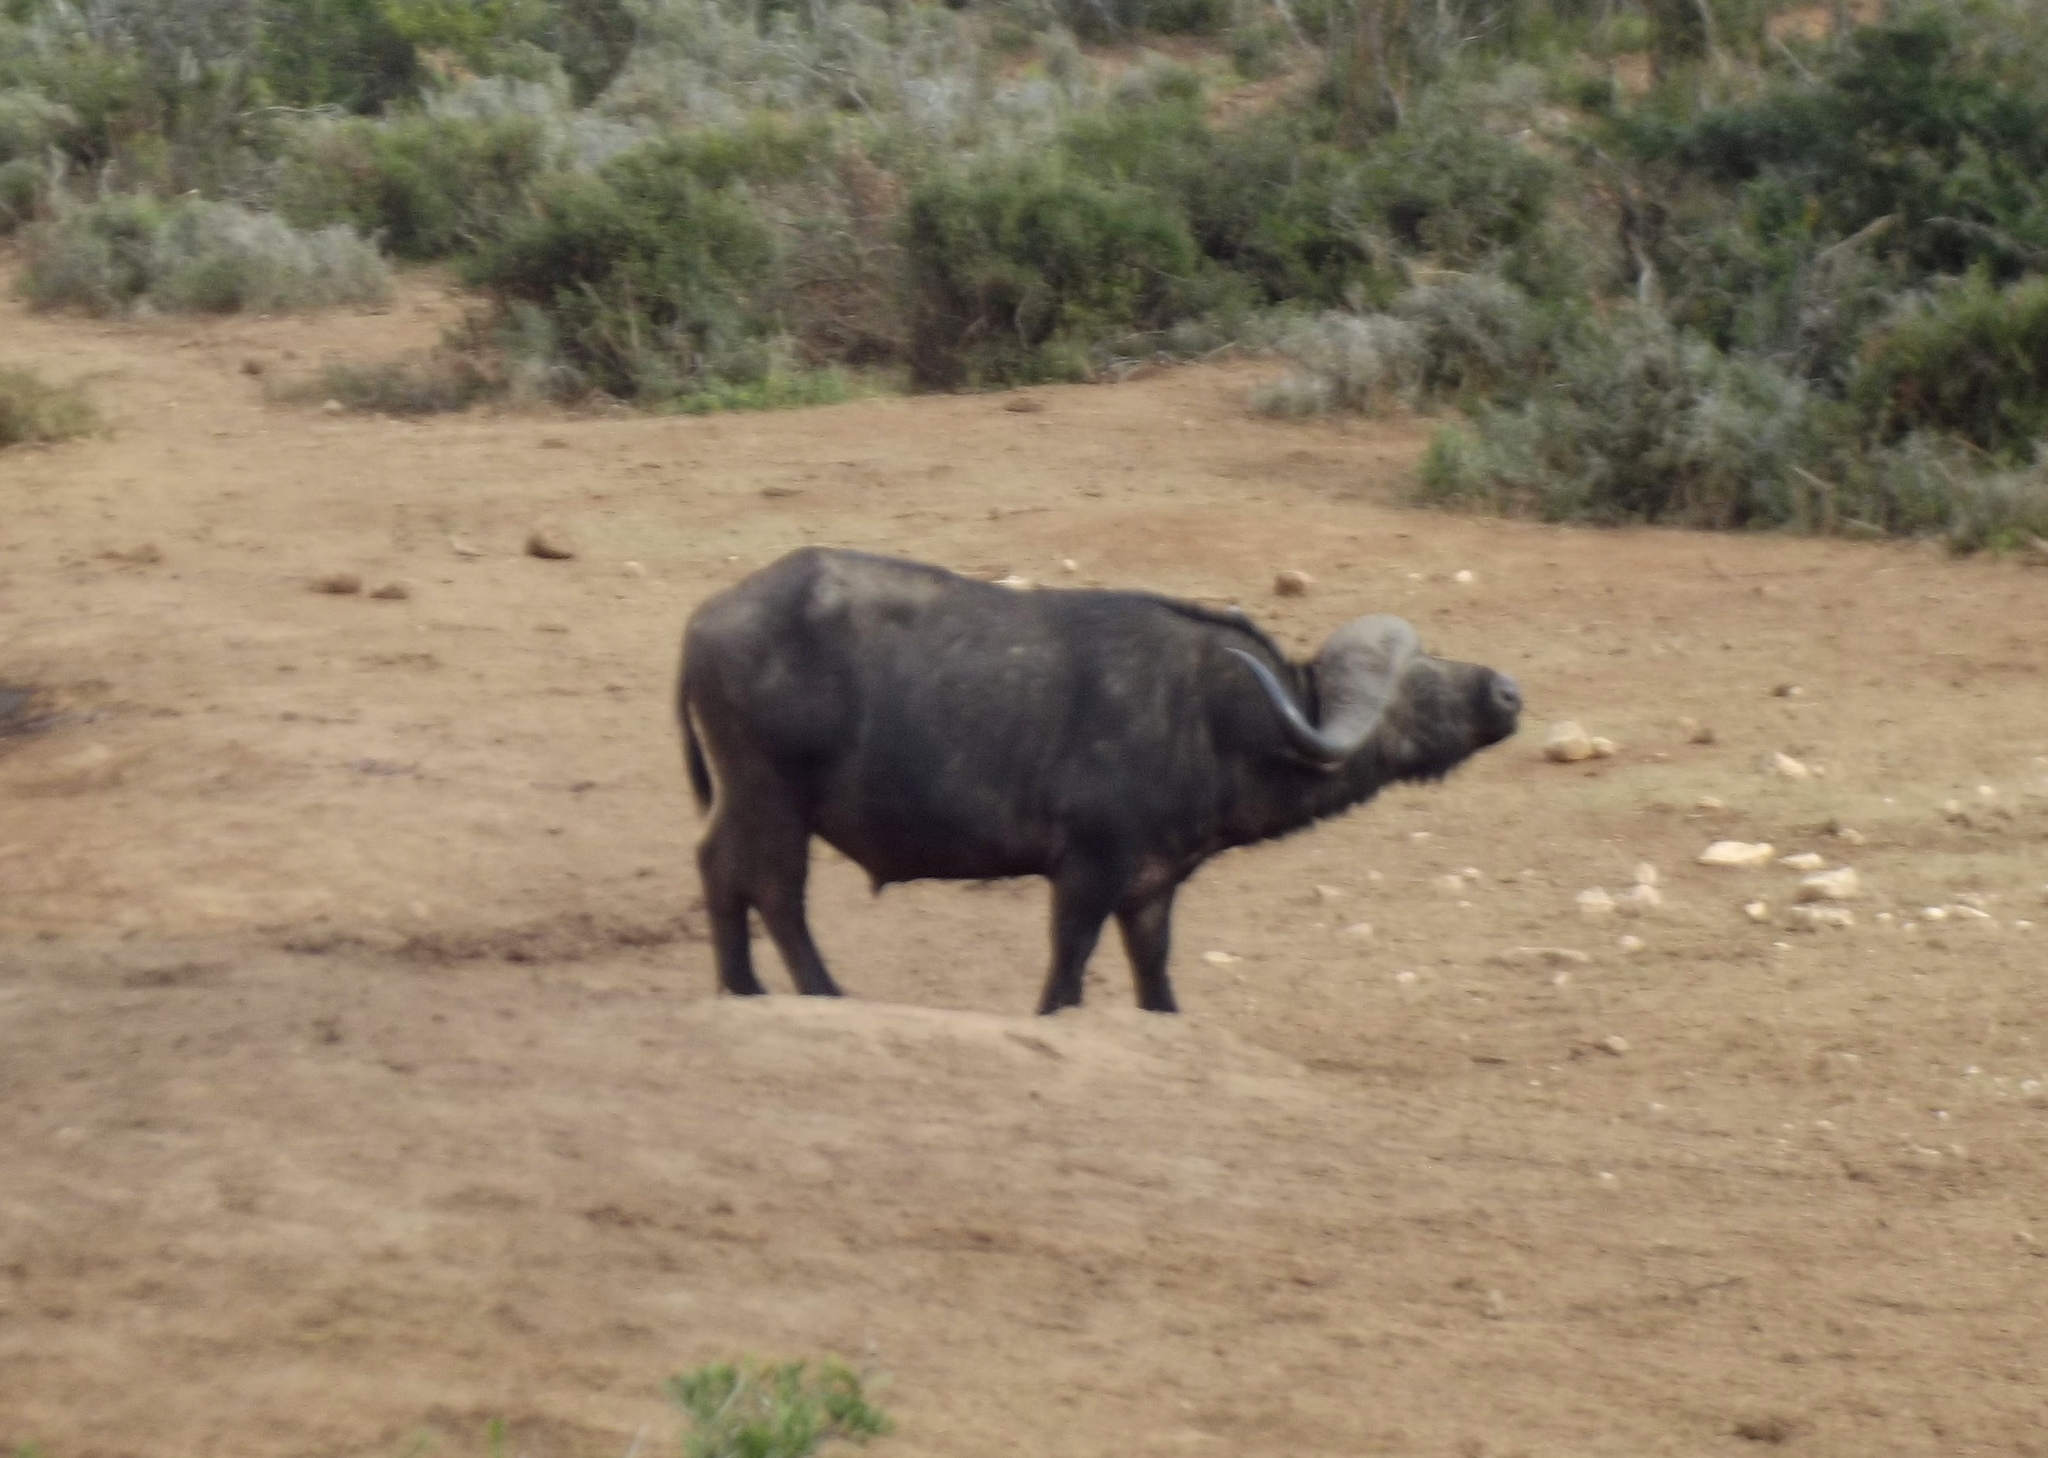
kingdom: Animalia
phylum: Chordata
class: Mammalia
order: Artiodactyla
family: Bovidae
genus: Syncerus
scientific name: Syncerus caffer
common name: African buffalo
